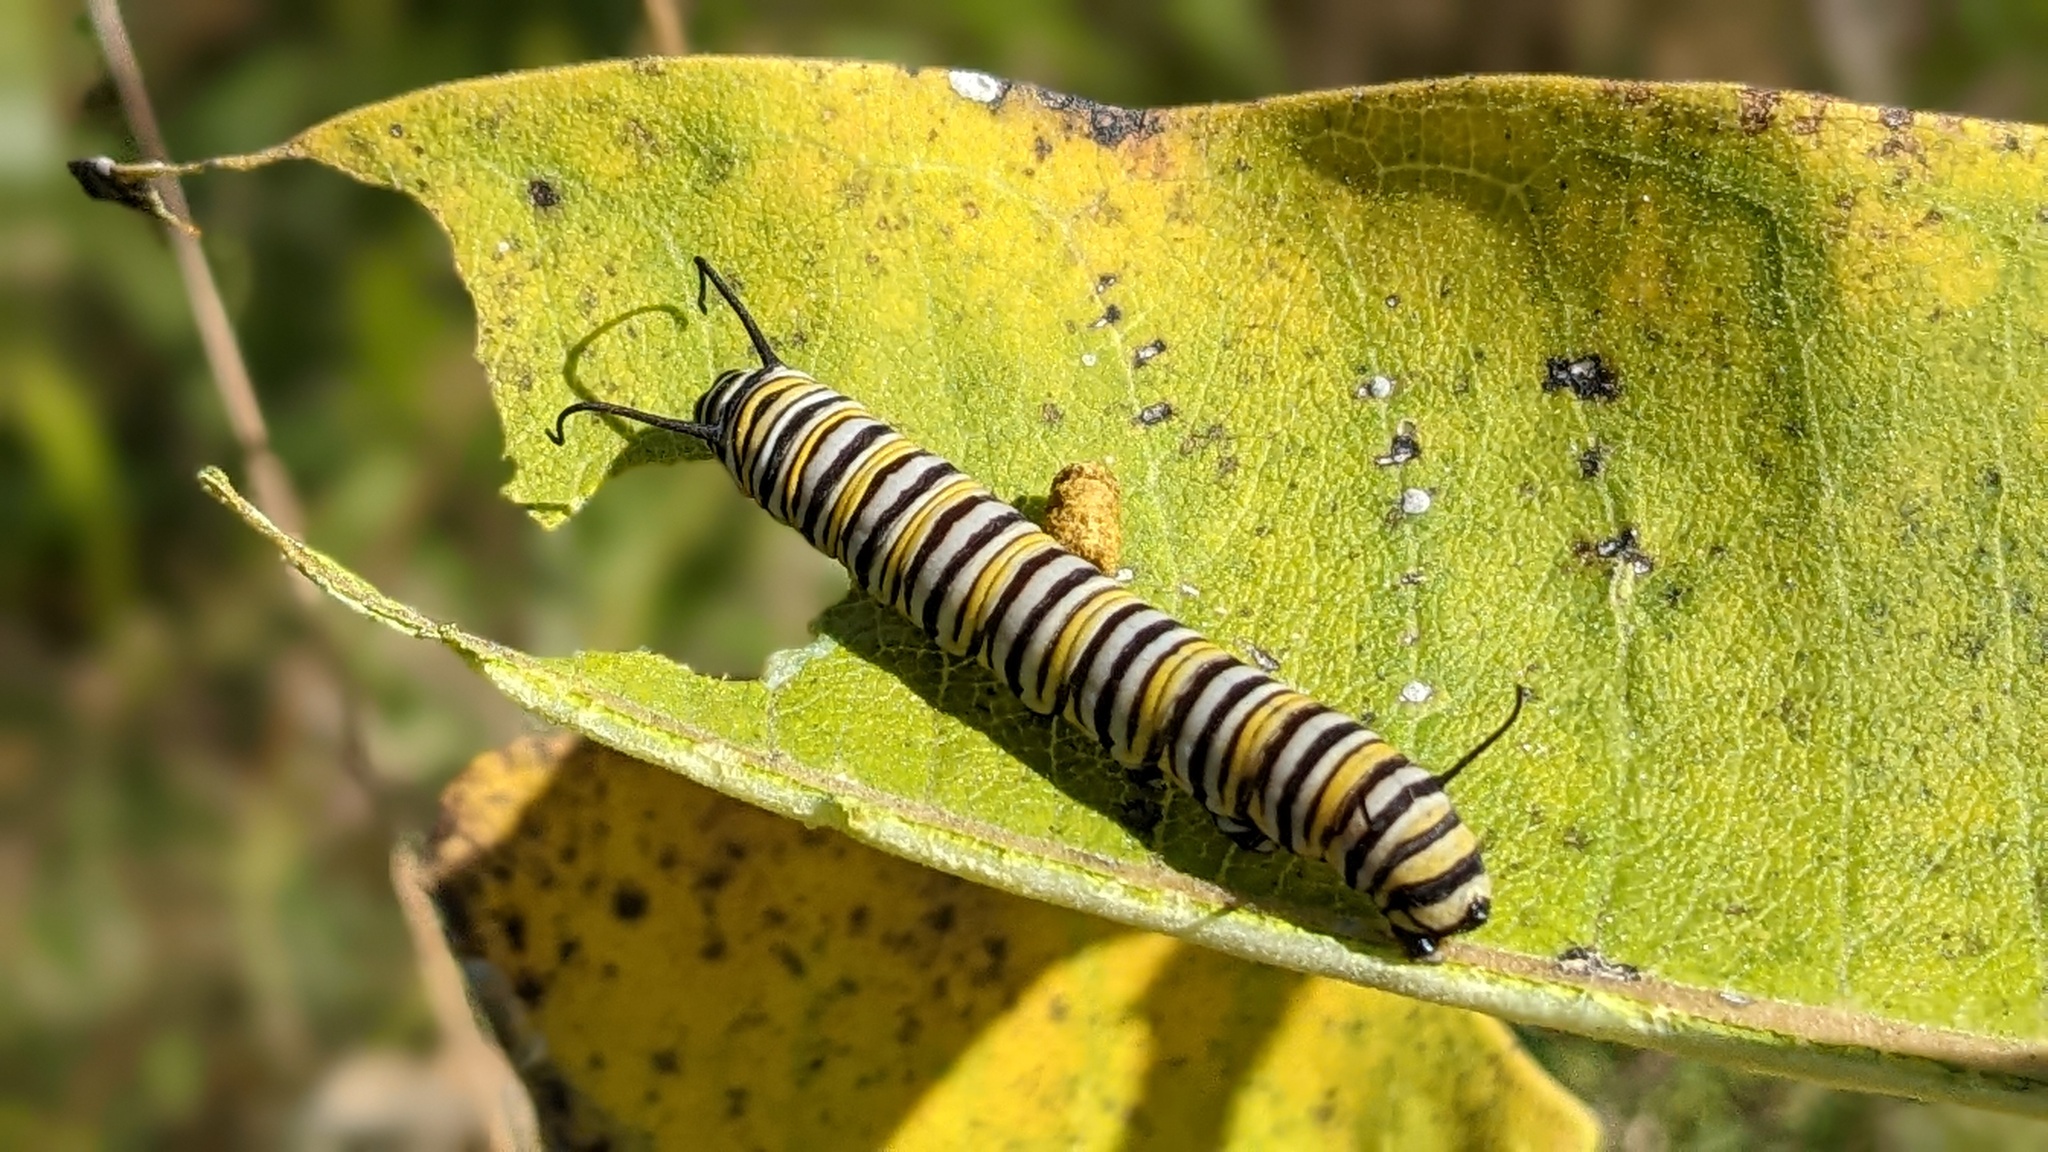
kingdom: Animalia
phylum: Arthropoda
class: Insecta
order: Lepidoptera
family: Nymphalidae
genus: Danaus
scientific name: Danaus plexippus
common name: Monarch
